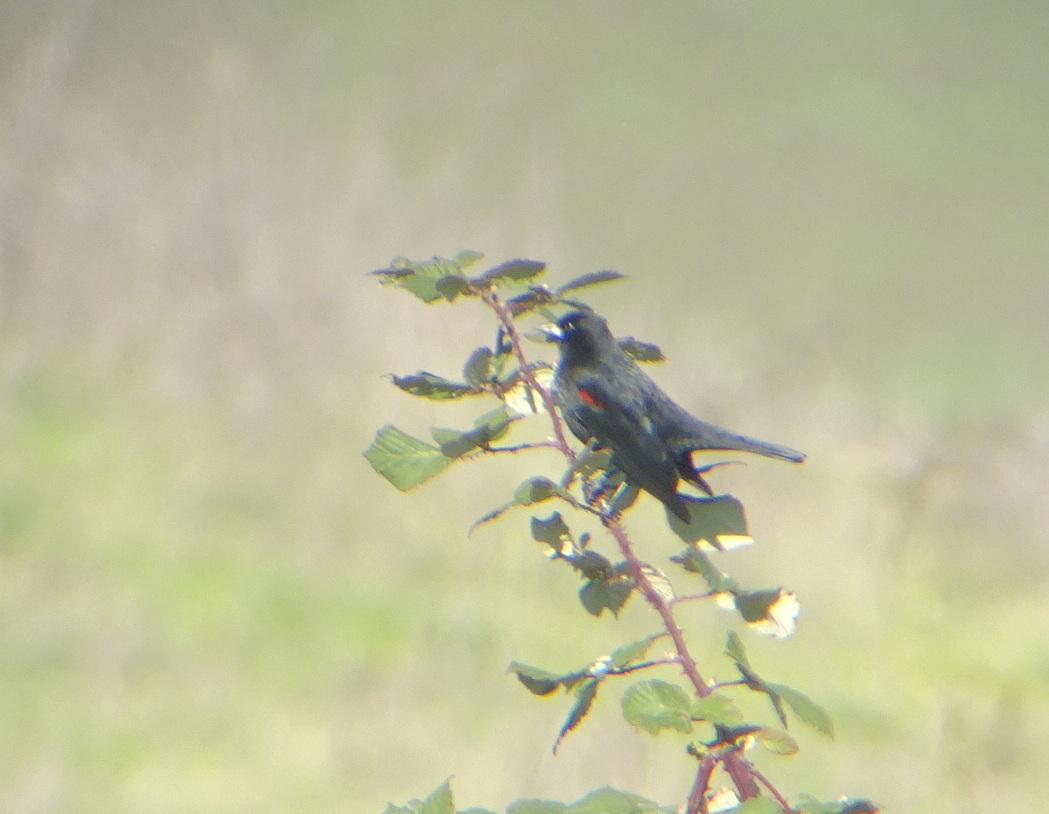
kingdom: Animalia
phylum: Chordata
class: Aves
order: Passeriformes
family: Icteridae
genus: Agelaius
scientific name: Agelaius phoeniceus
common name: Red-winged blackbird
